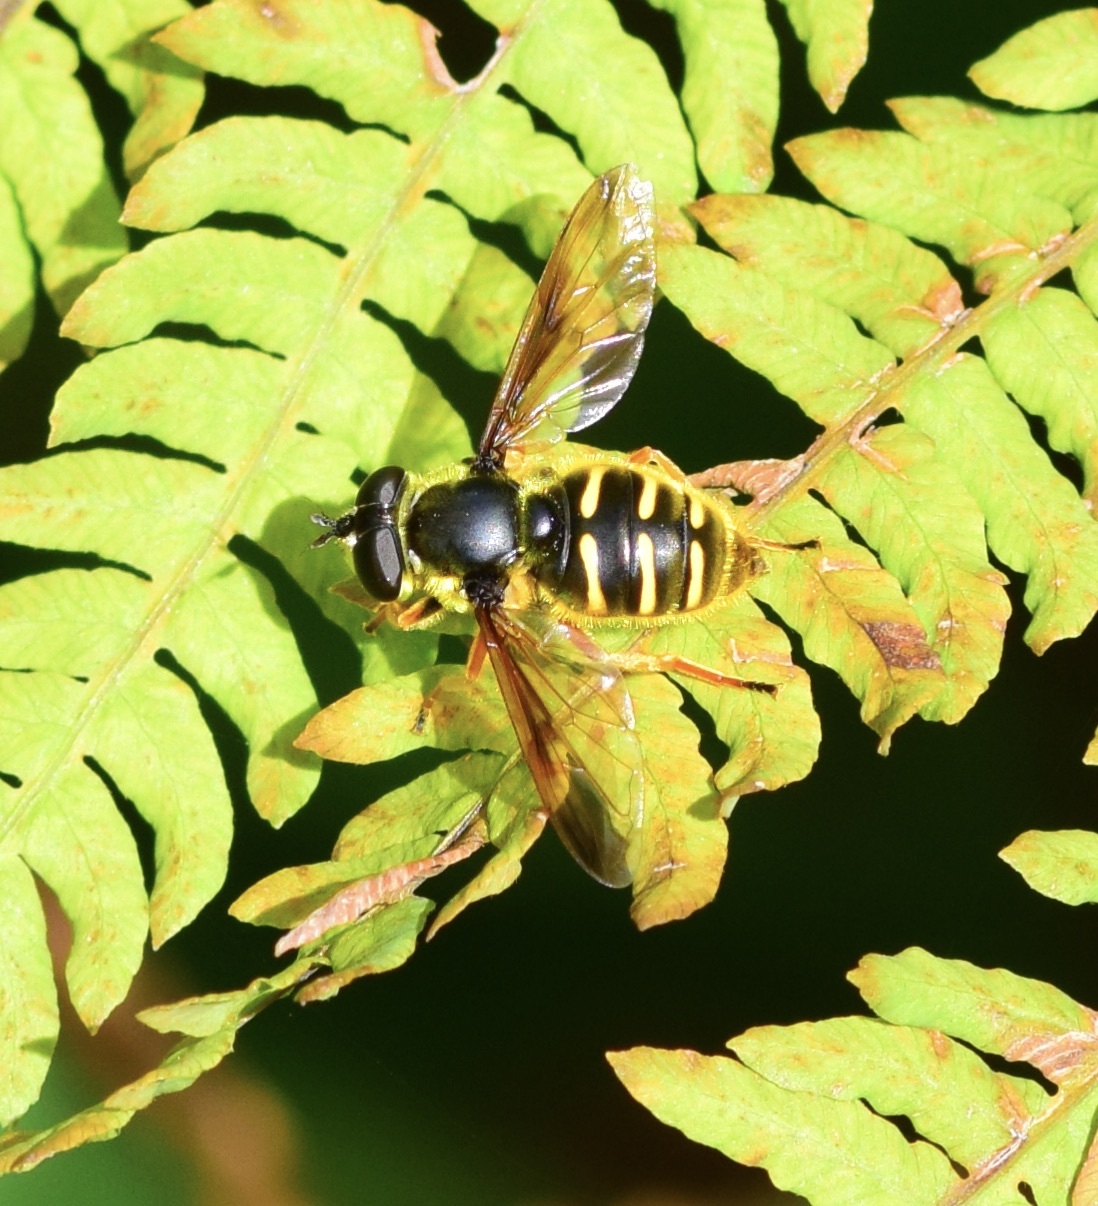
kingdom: Animalia
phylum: Arthropoda
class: Insecta
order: Diptera
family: Syrphidae
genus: Sericomyia
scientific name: Sericomyia chrysotoxoides
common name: Oblique-banded pond fly
